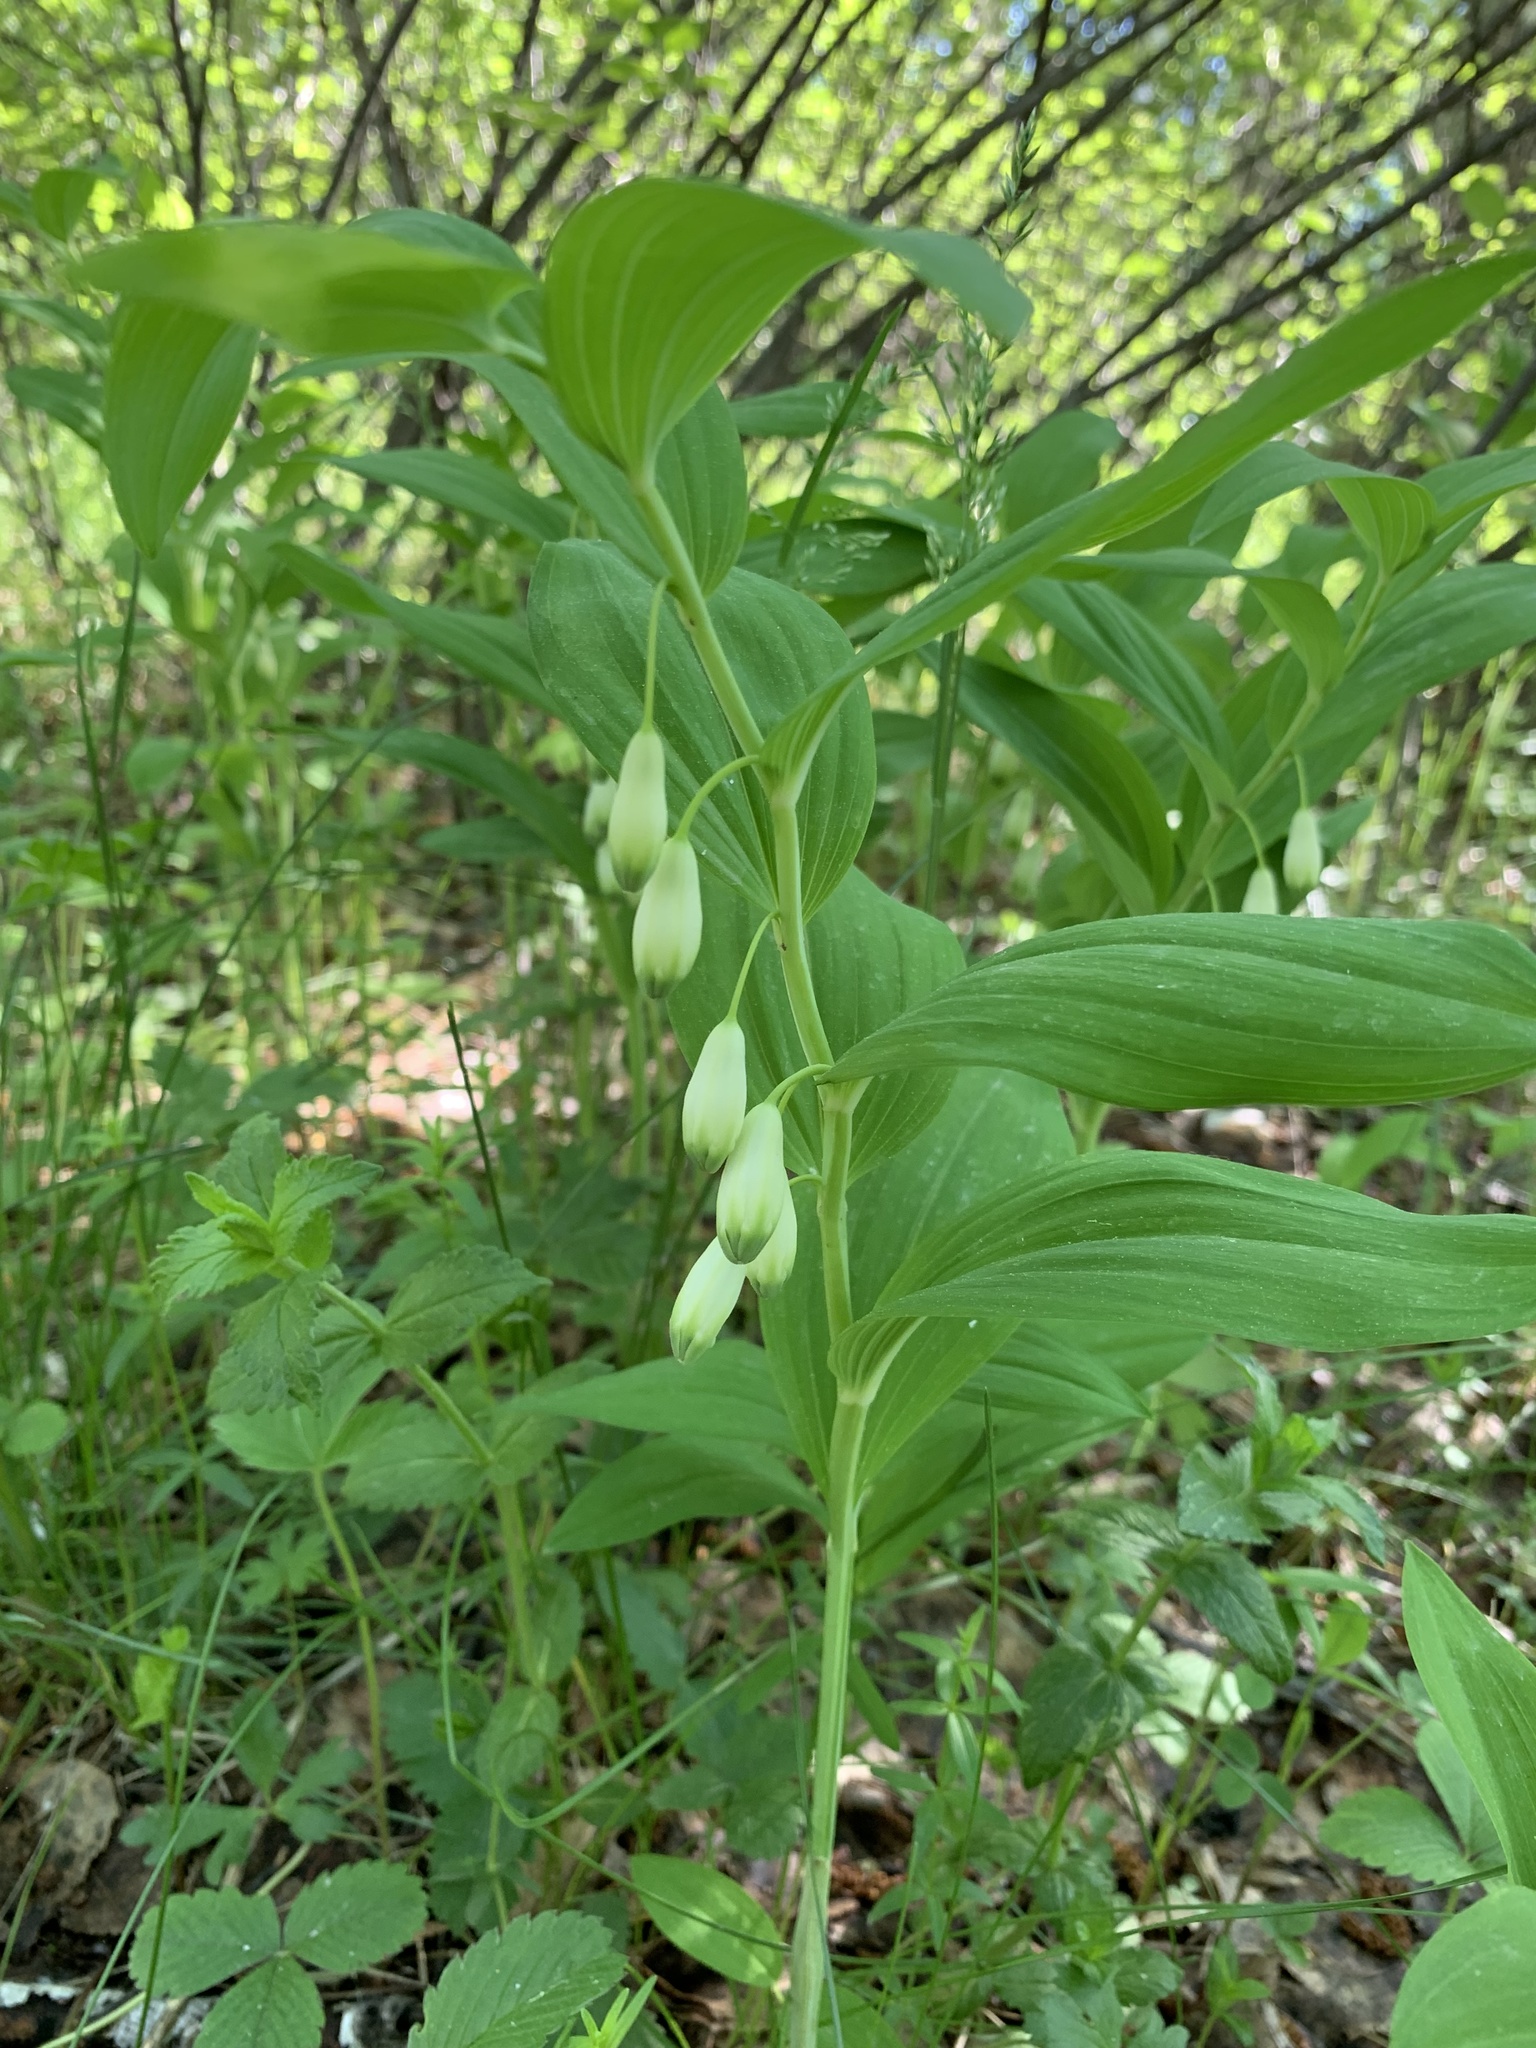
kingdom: Plantae
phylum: Tracheophyta
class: Liliopsida
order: Asparagales
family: Asparagaceae
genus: Polygonatum
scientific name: Polygonatum odoratum
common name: Angular solomon's-seal
